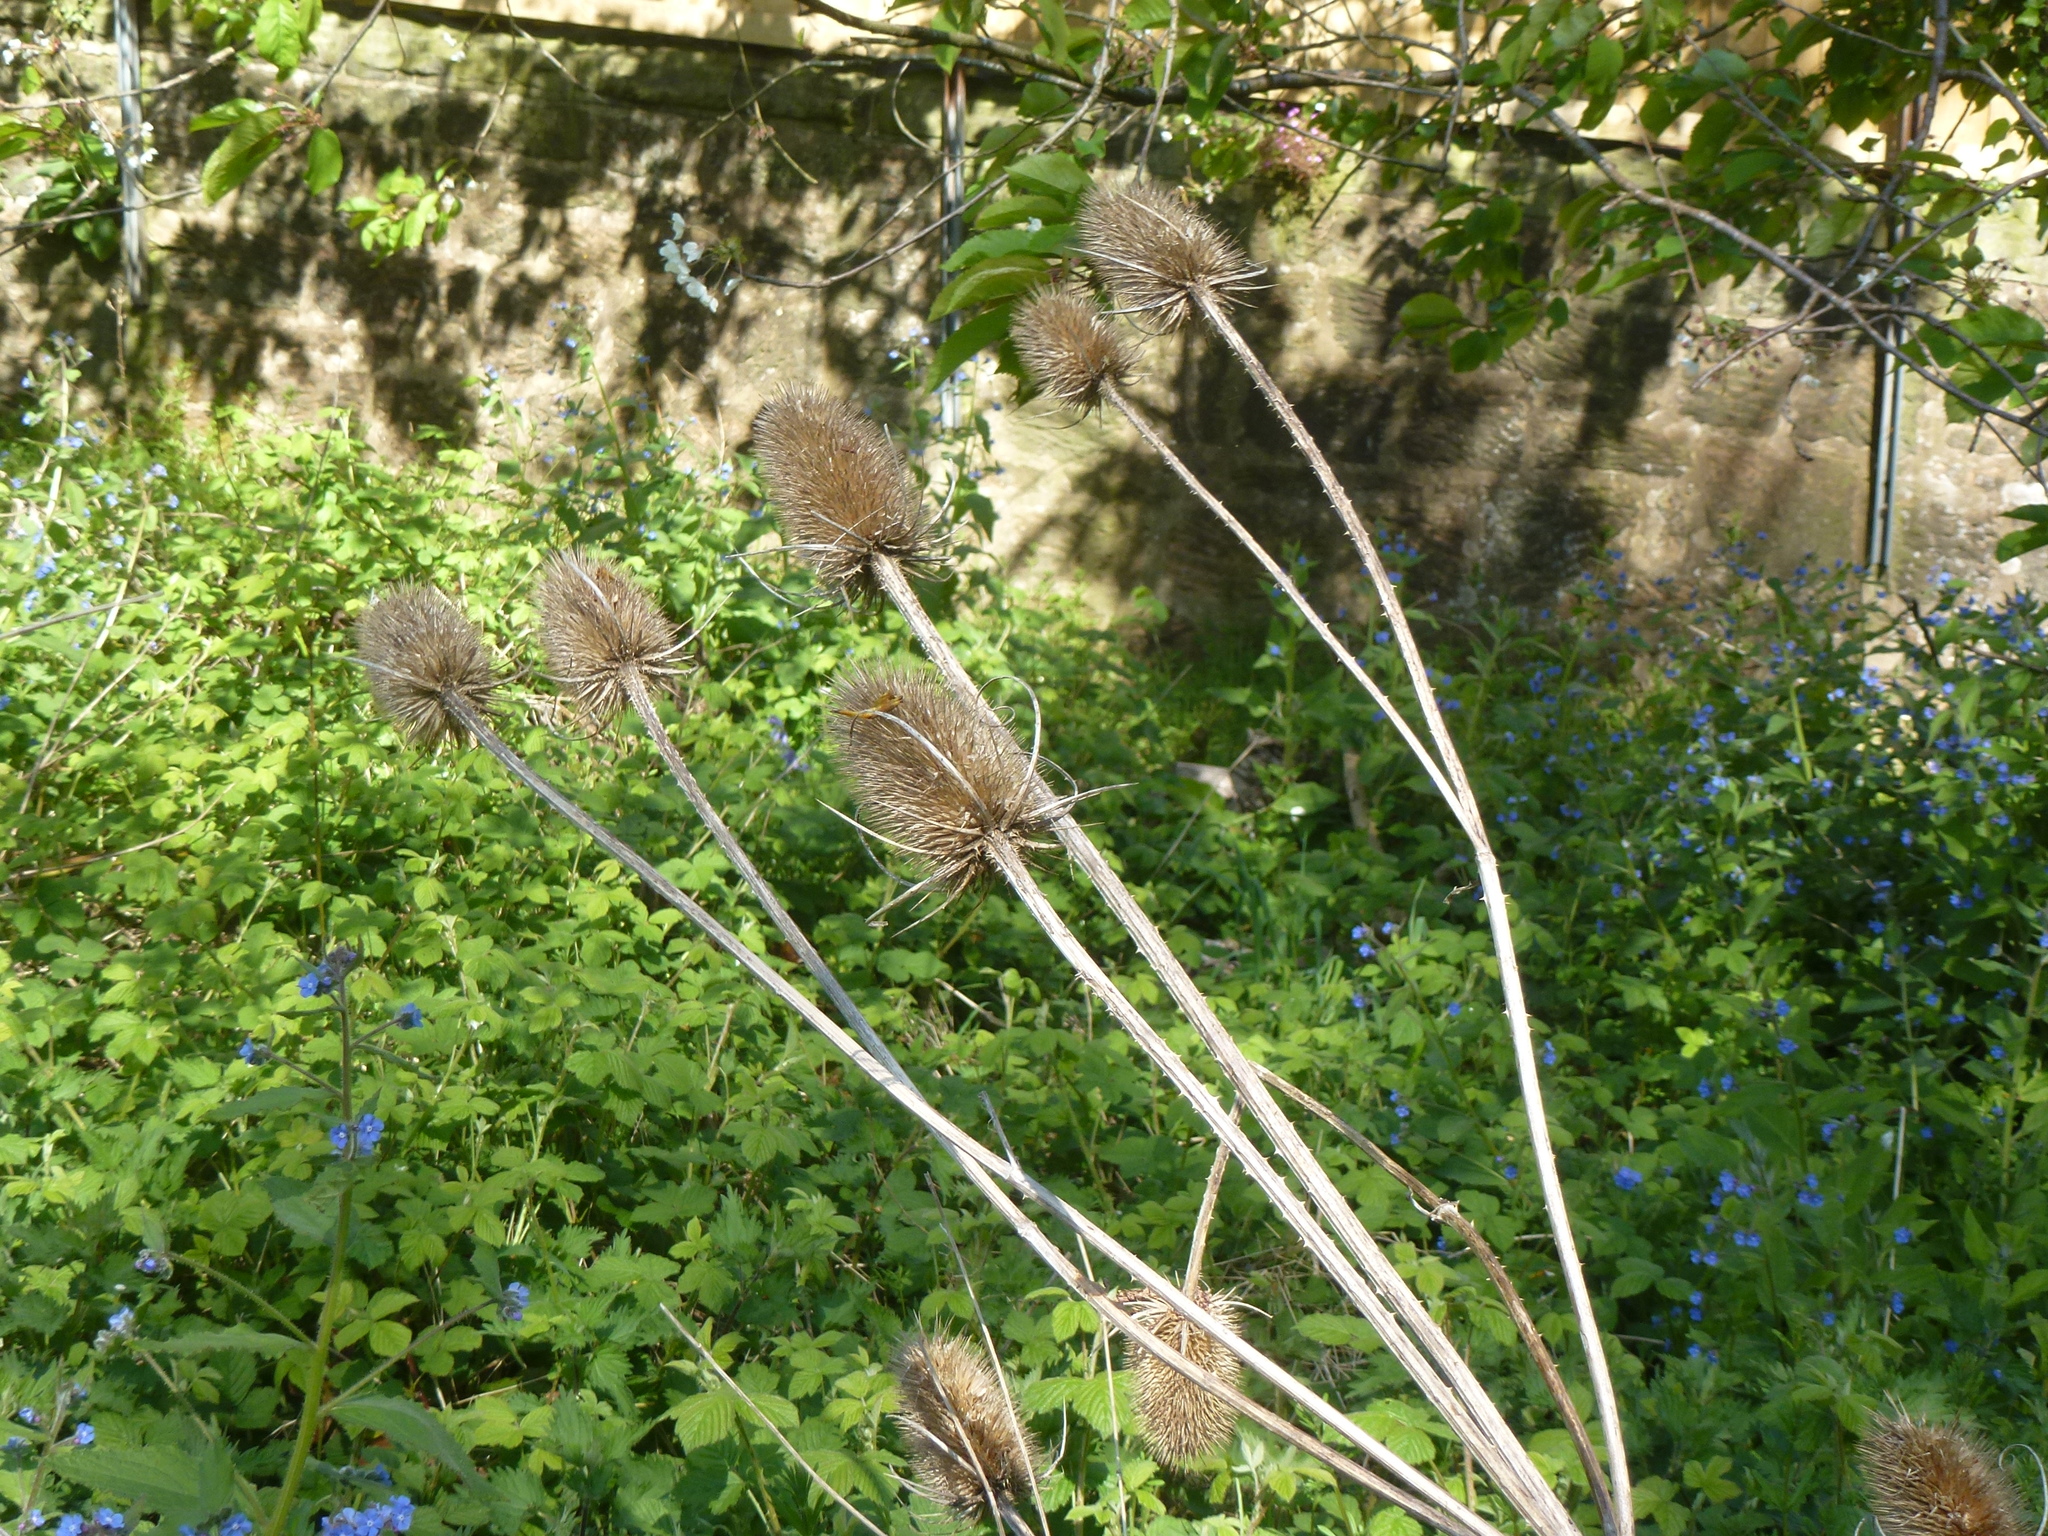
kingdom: Plantae
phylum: Tracheophyta
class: Magnoliopsida
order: Dipsacales
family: Caprifoliaceae
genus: Dipsacus
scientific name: Dipsacus fullonum
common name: Teasel
